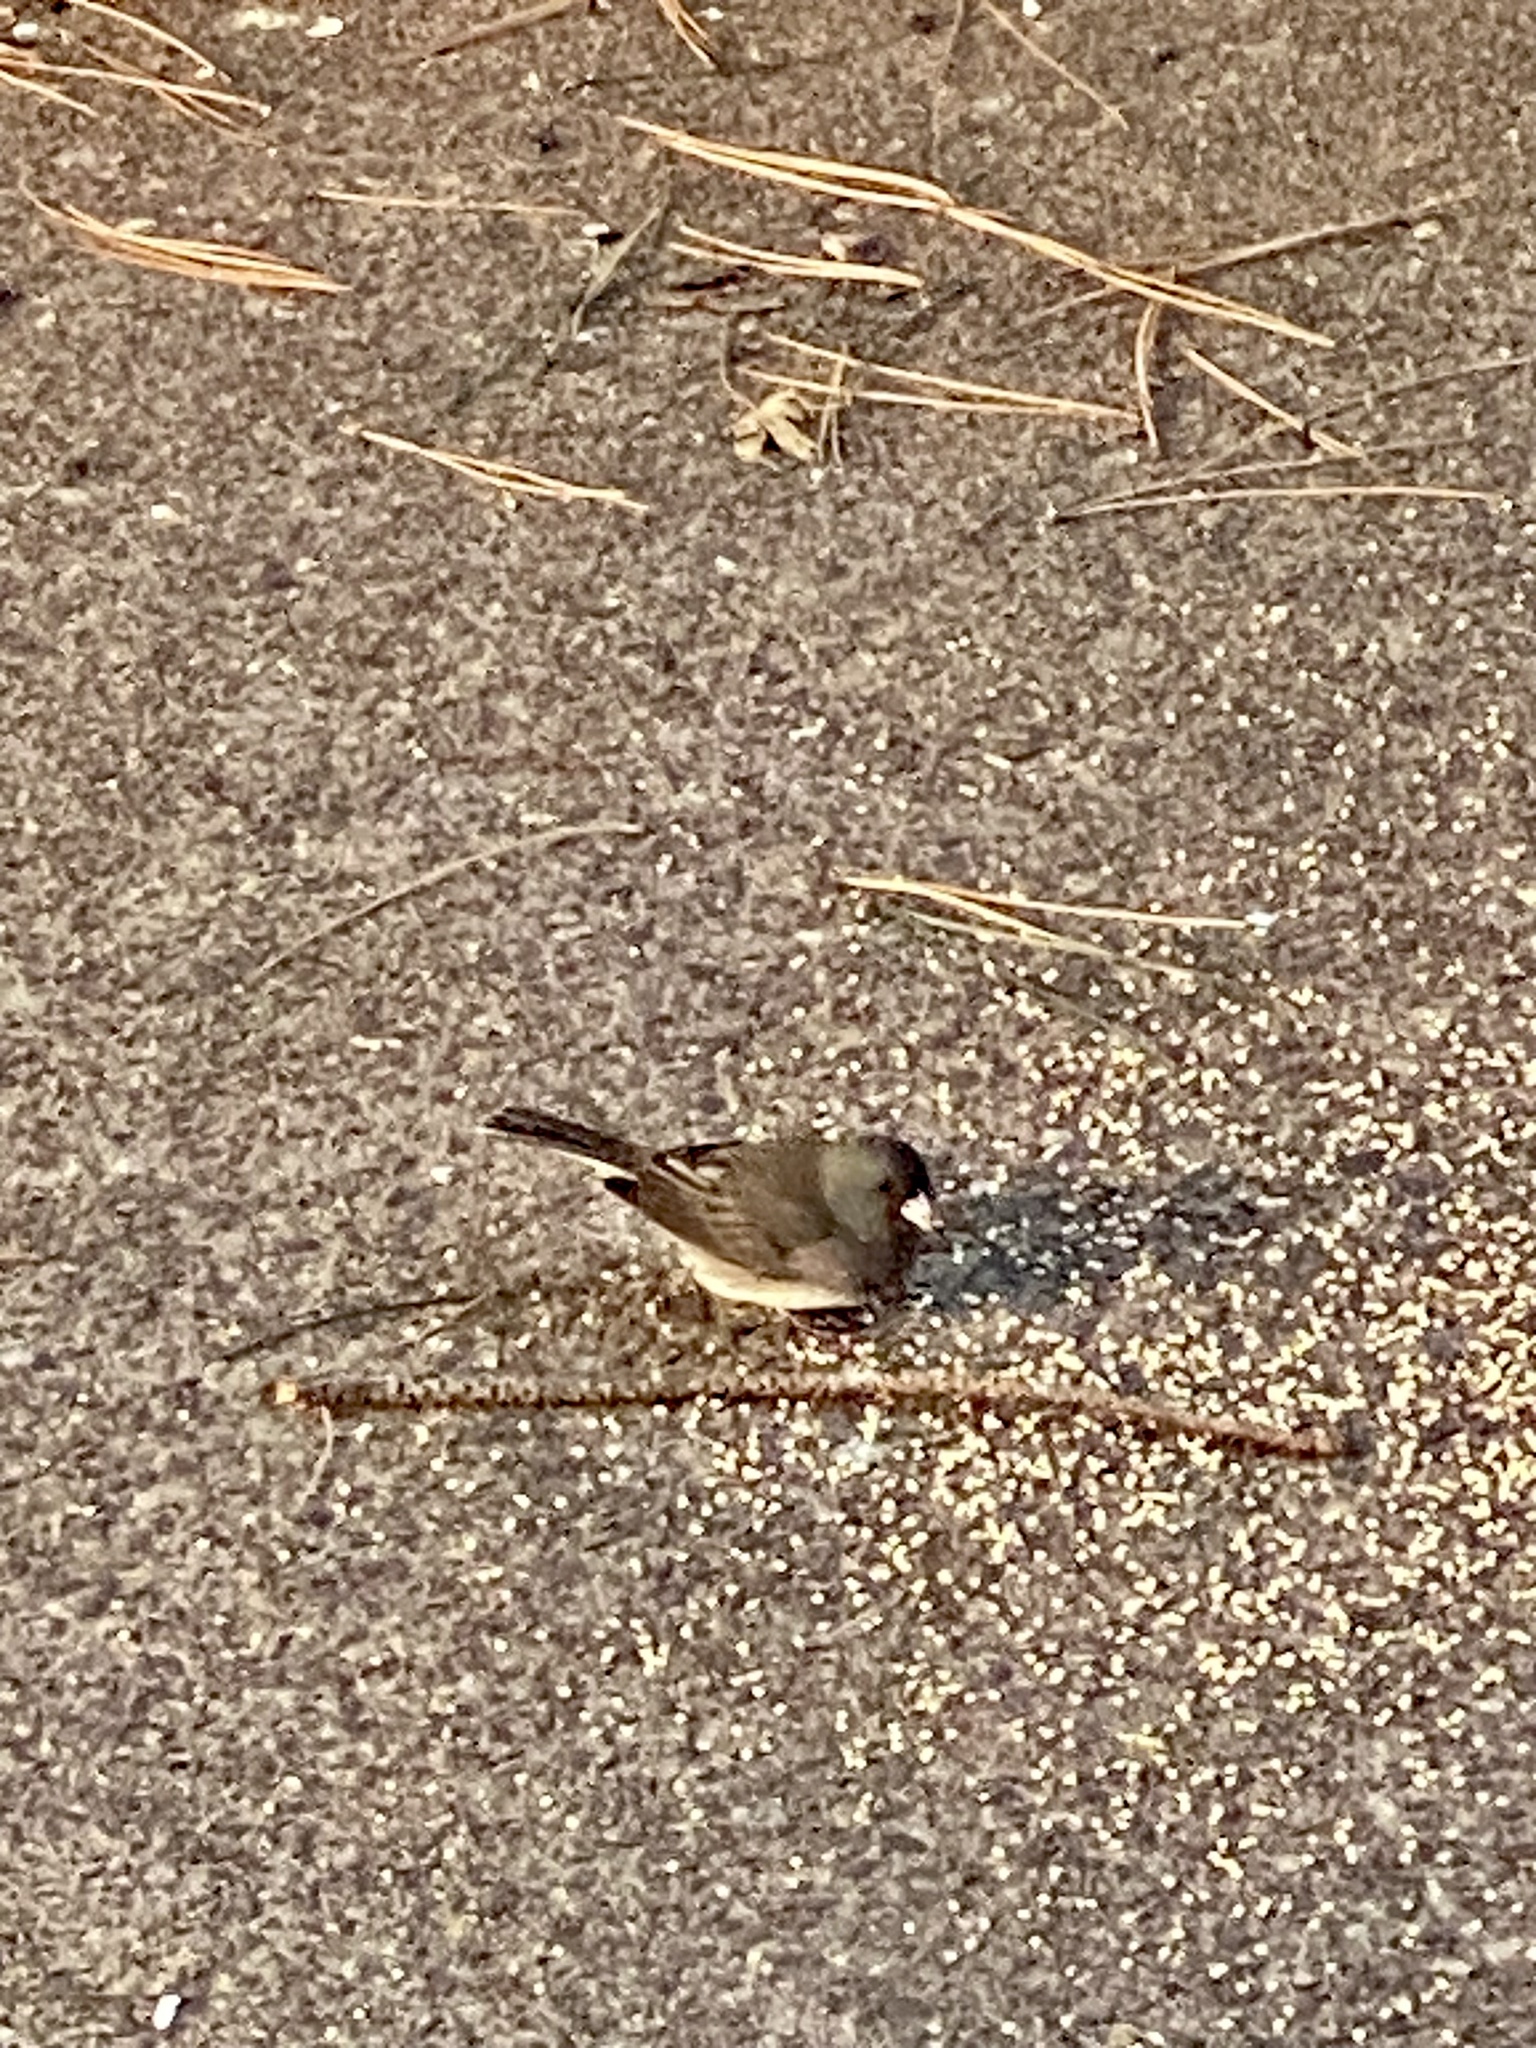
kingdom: Animalia
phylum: Chordata
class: Aves
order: Passeriformes
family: Passerellidae
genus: Junco
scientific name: Junco hyemalis
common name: Dark-eyed junco
